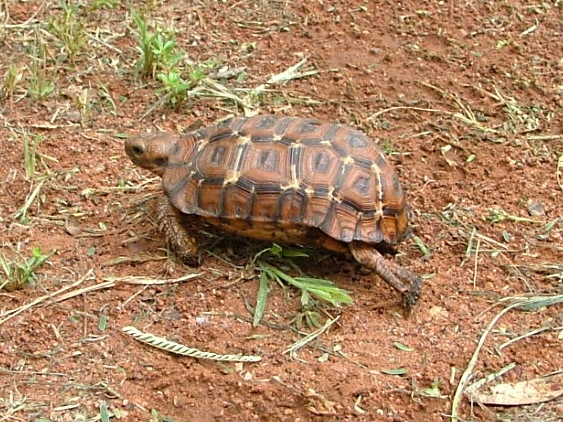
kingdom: Animalia
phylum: Chordata
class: Testudines
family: Testudinidae
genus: Kinixys
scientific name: Kinixys lobatsiana
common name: Lobatse hinge-back tortoise
